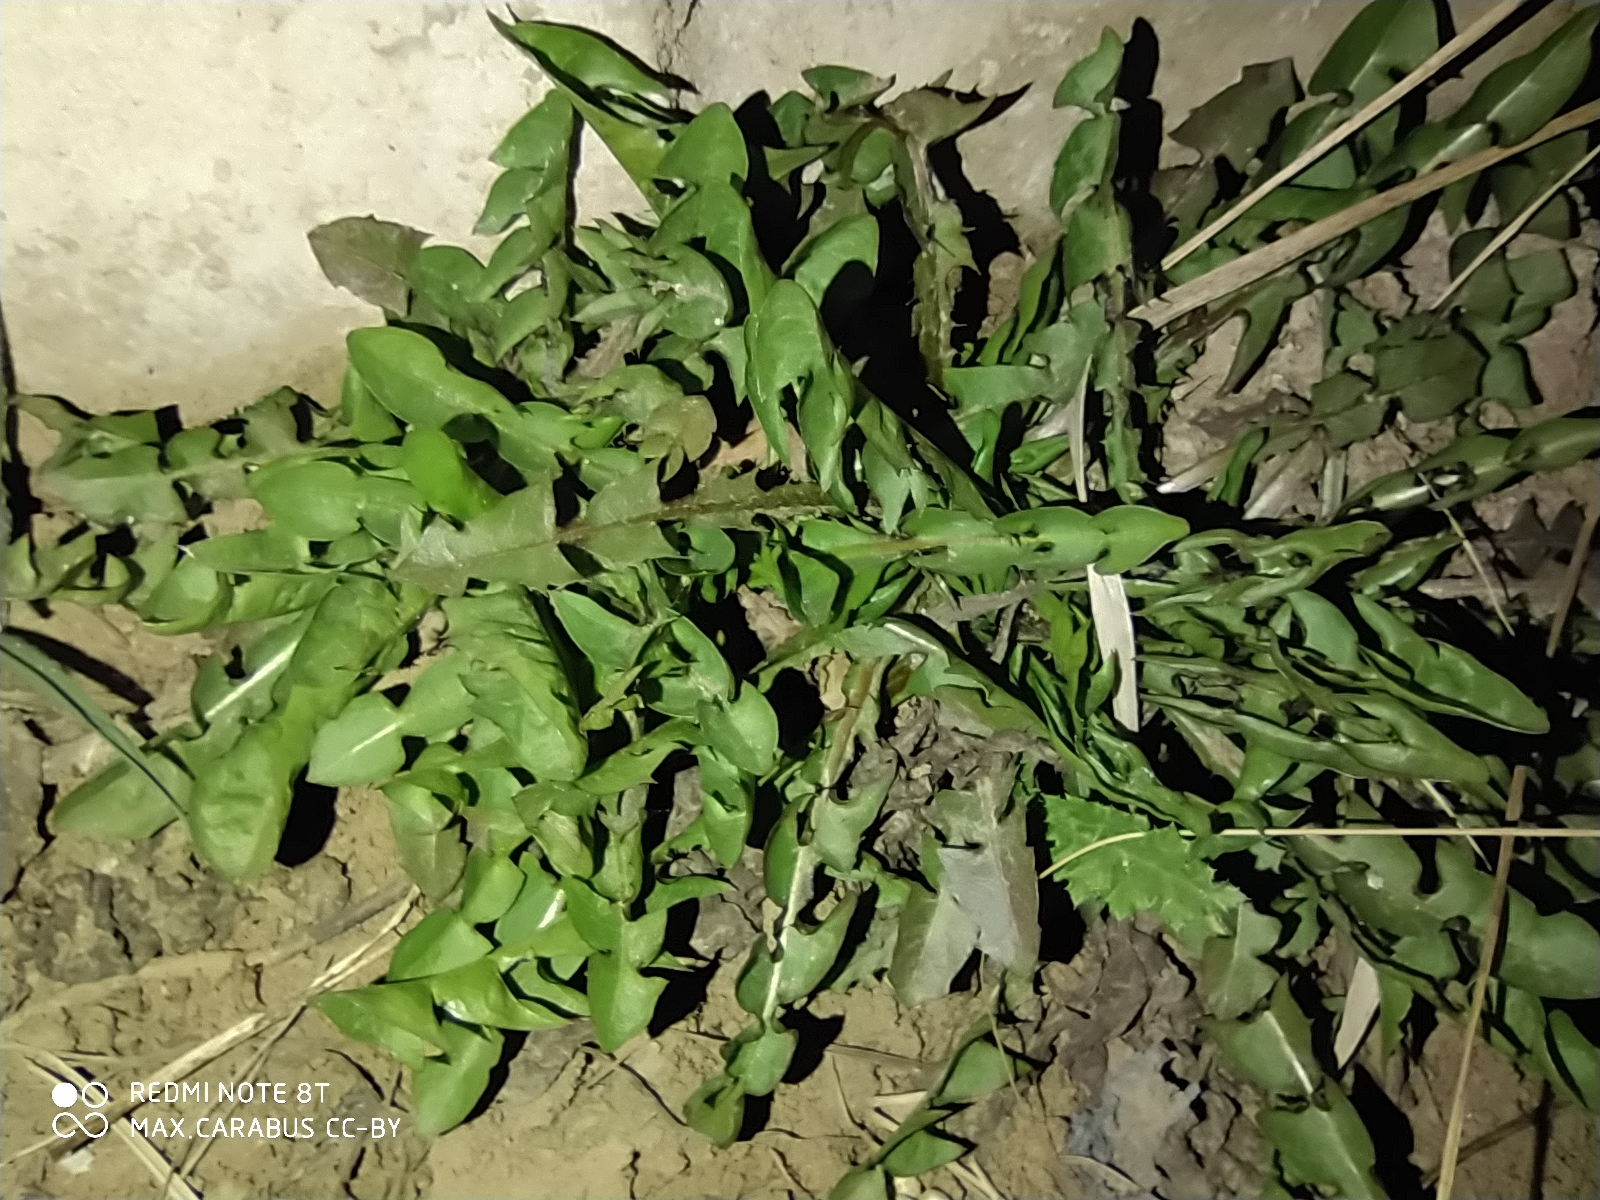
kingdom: Plantae
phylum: Tracheophyta
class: Magnoliopsida
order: Asterales
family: Asteraceae
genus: Taraxacum
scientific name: Taraxacum officinale
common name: Common dandelion
